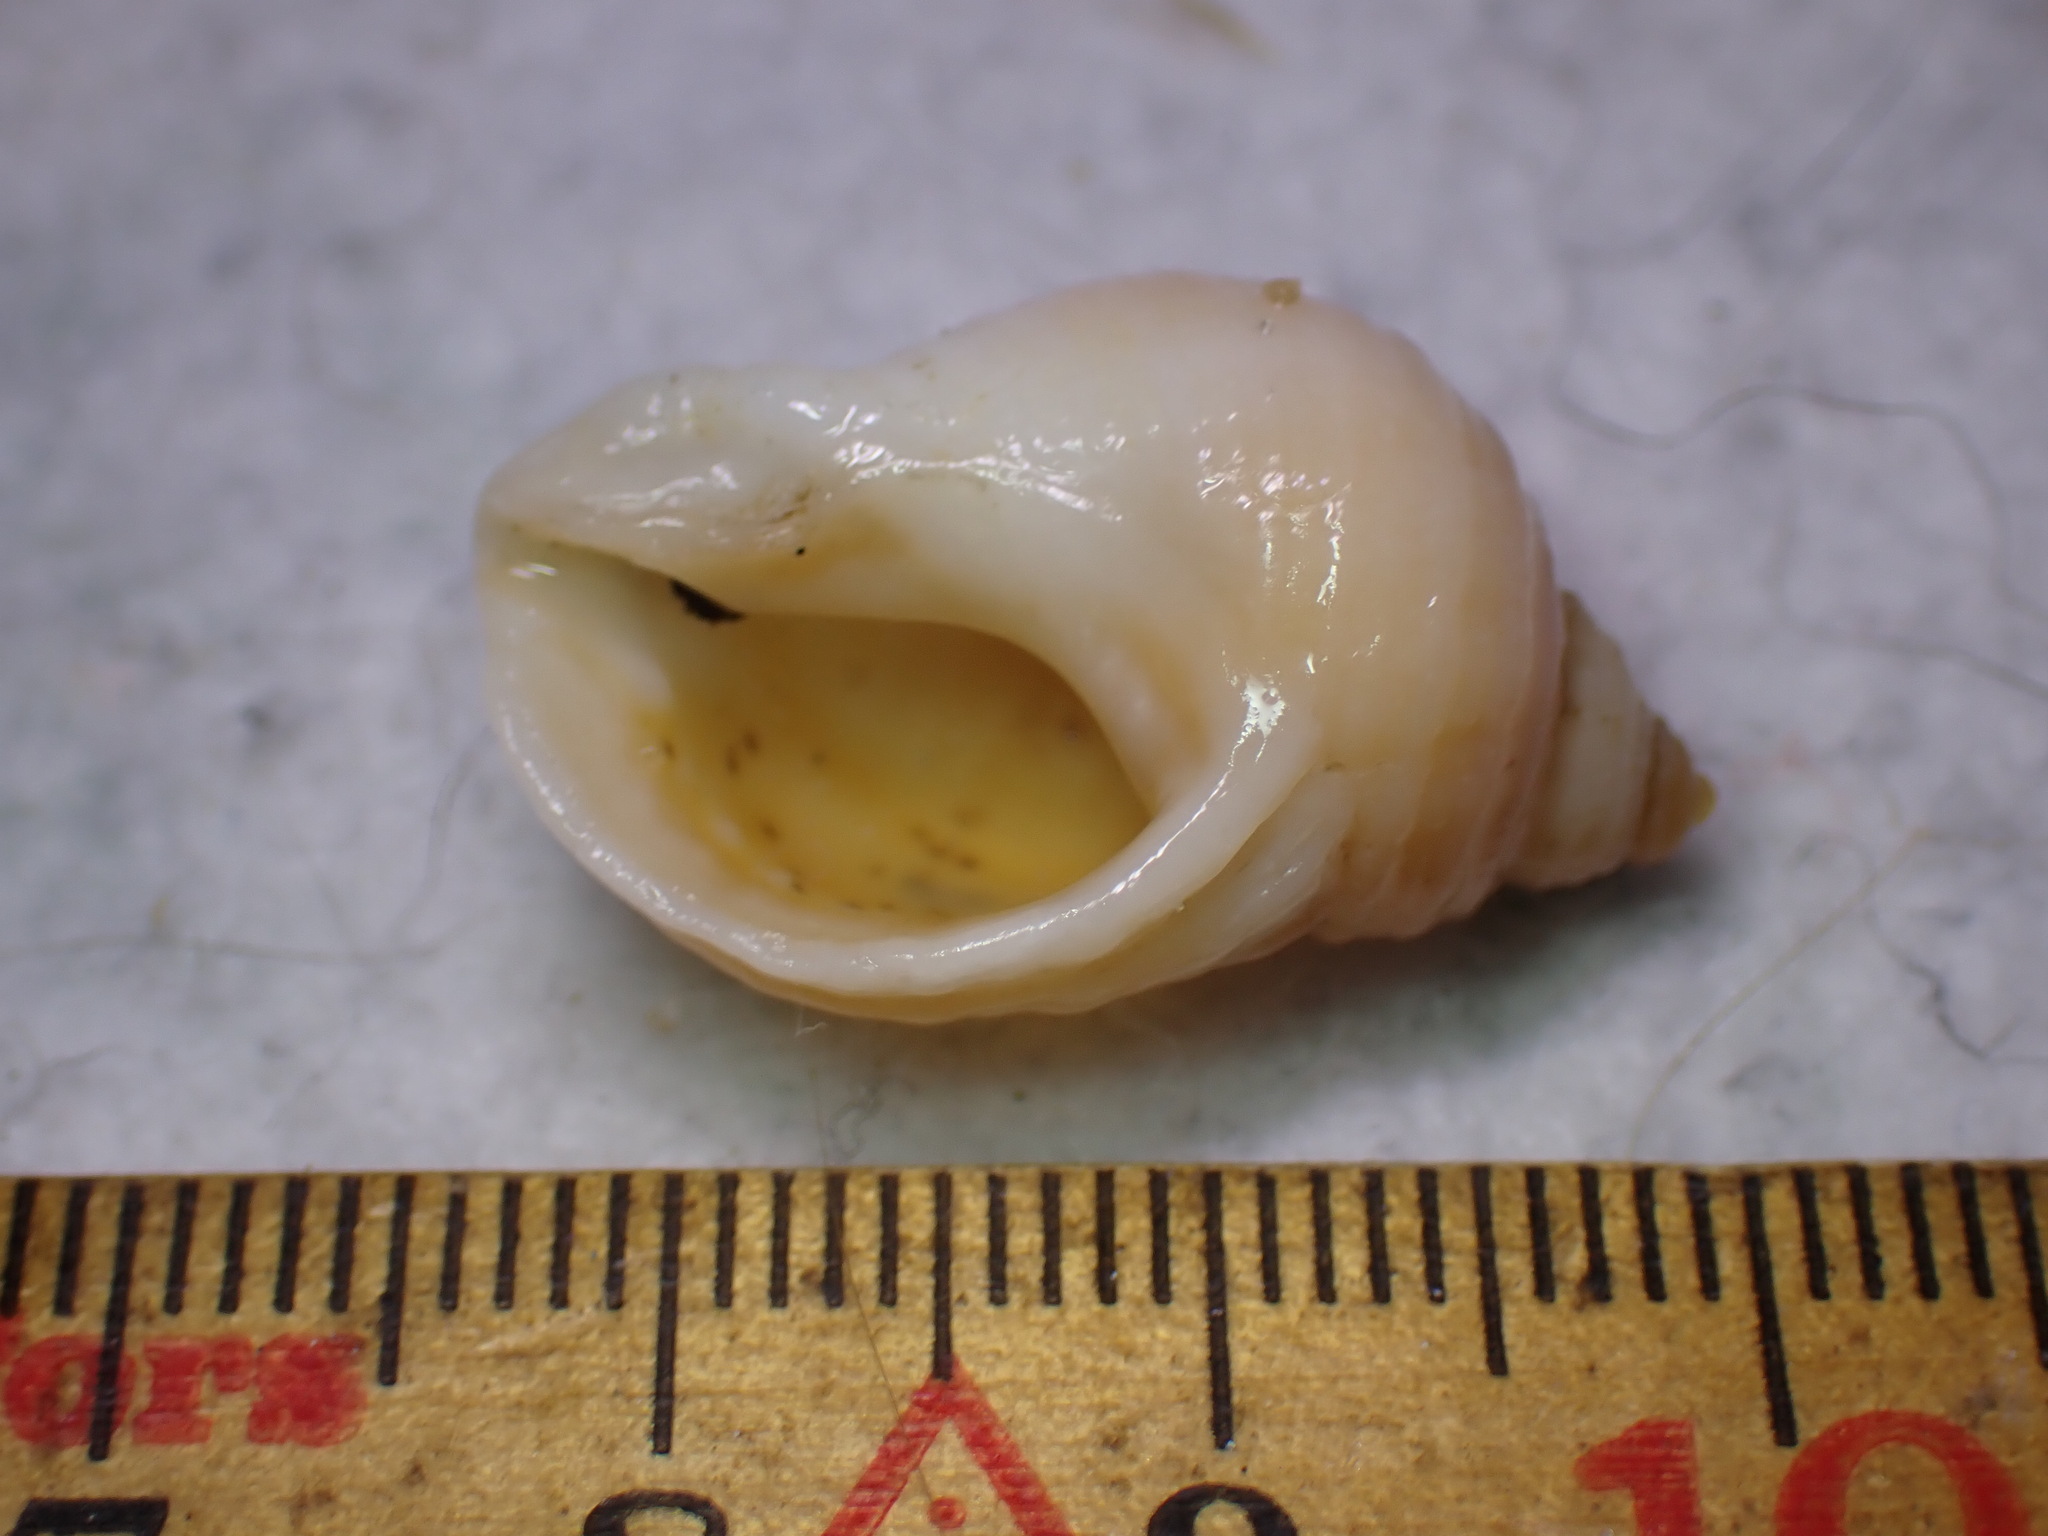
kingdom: Animalia
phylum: Mollusca
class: Gastropoda
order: Neogastropoda
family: Muricidae
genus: Nucella
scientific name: Nucella lapillus
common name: Dog whelk
